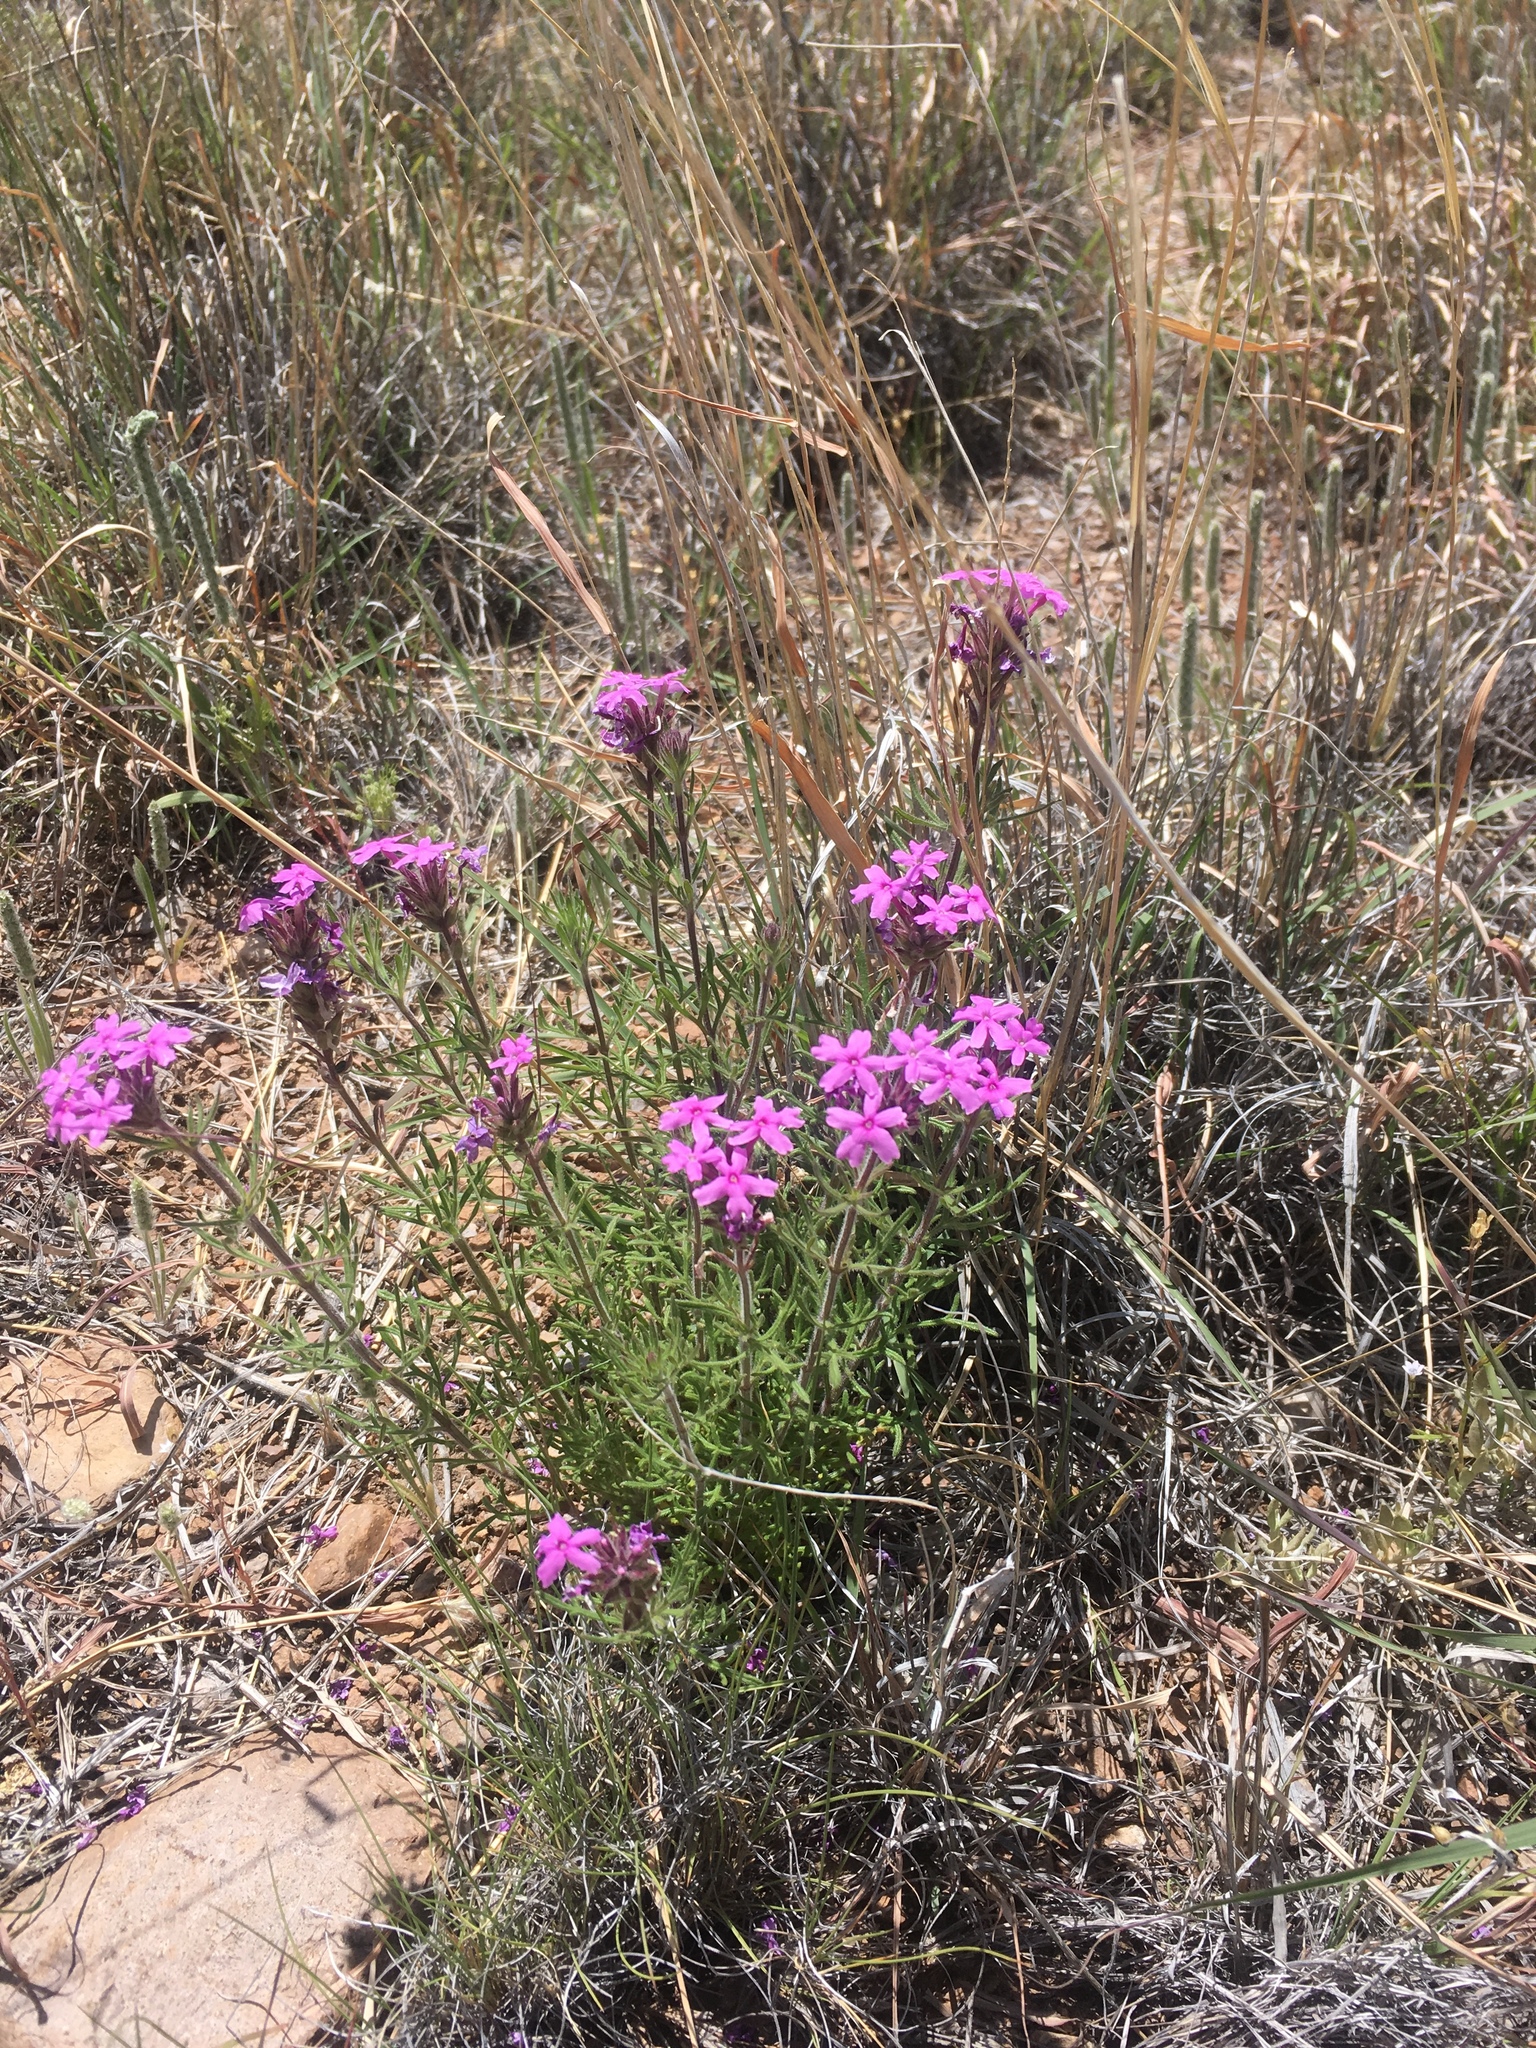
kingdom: Plantae
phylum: Tracheophyta
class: Magnoliopsida
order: Lamiales
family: Verbenaceae
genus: Verbena
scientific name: Verbena bipinnatifida
